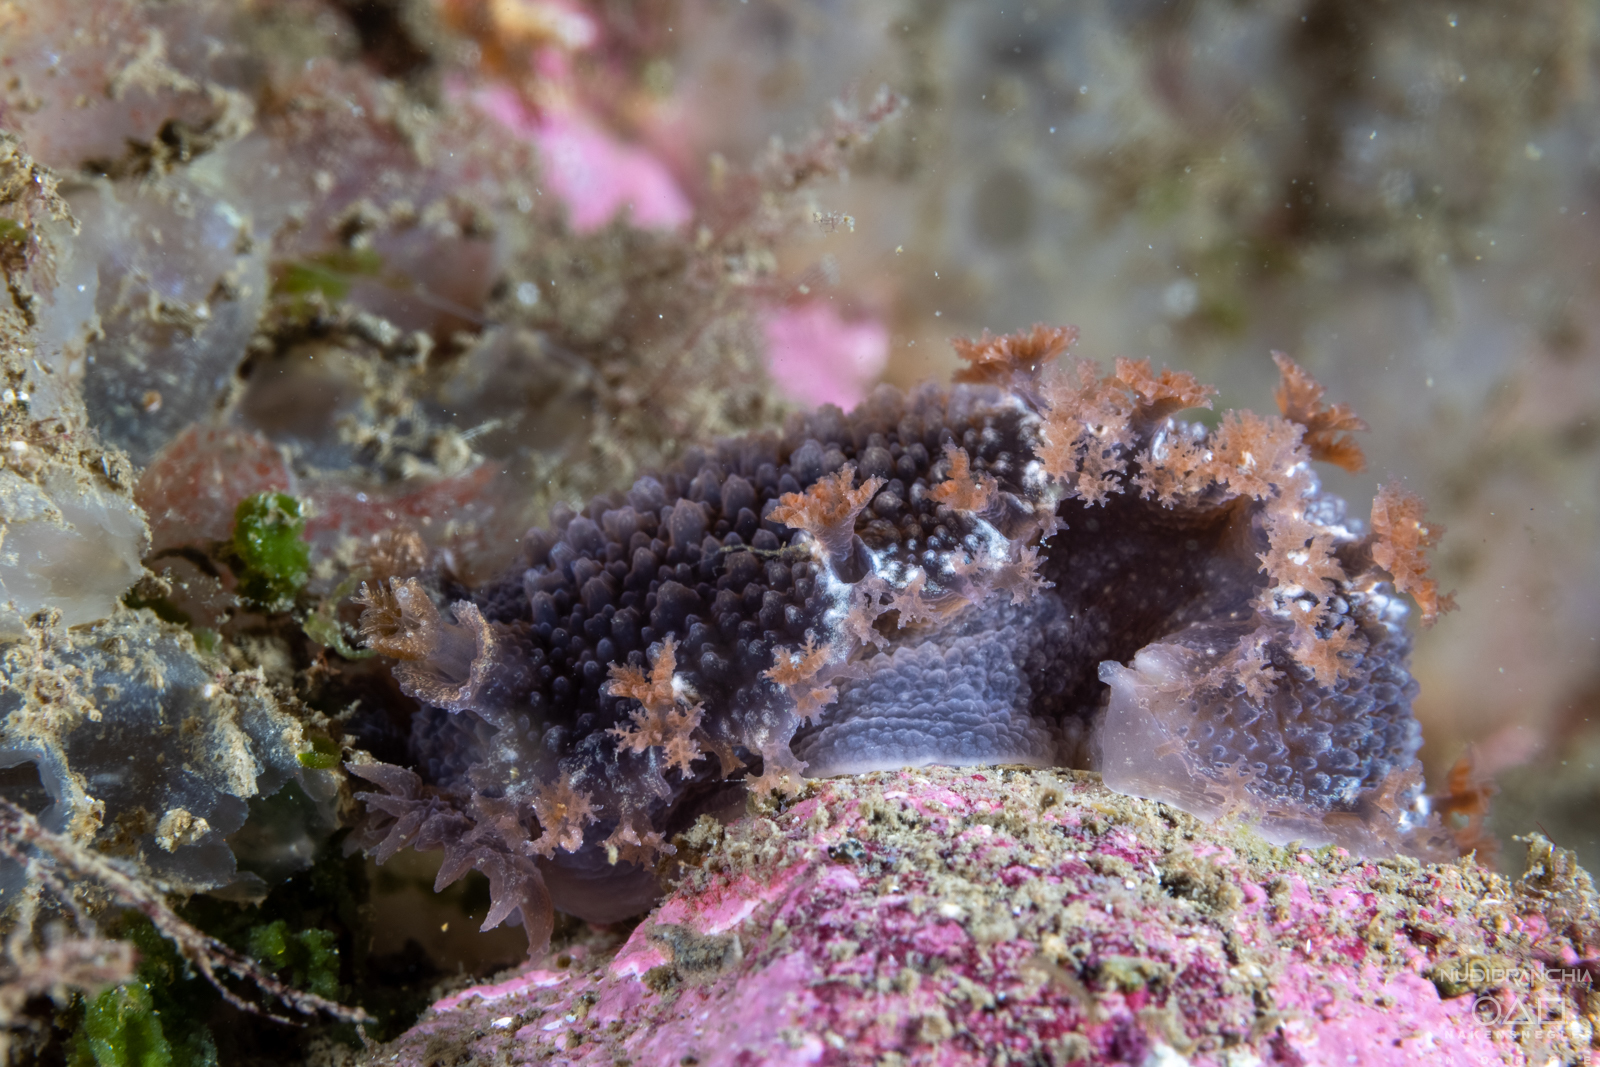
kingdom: Animalia
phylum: Mollusca
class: Gastropoda
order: Nudibranchia
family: Tritoniidae
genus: Tritonia
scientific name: Tritonia hombergii
